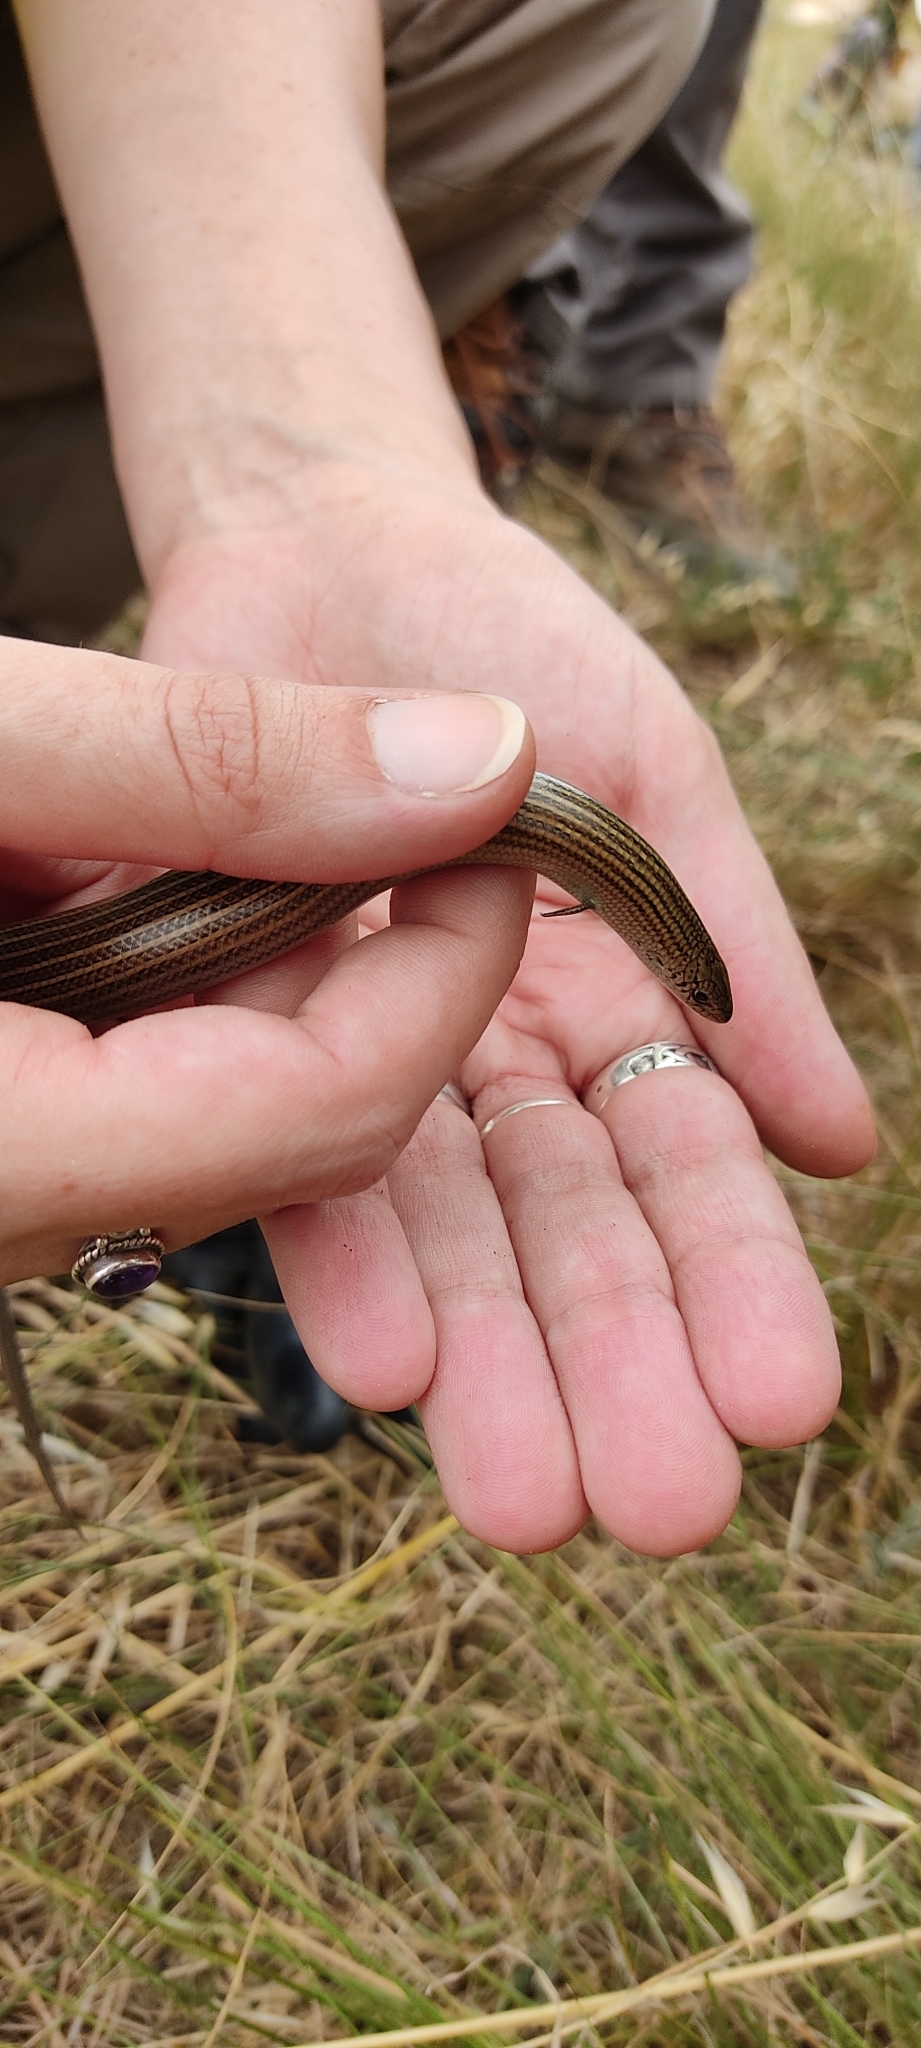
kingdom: Animalia
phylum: Chordata
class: Squamata
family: Scincidae
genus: Chalcides
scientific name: Chalcides striatus
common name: Western (or iberian) three-toed skink
